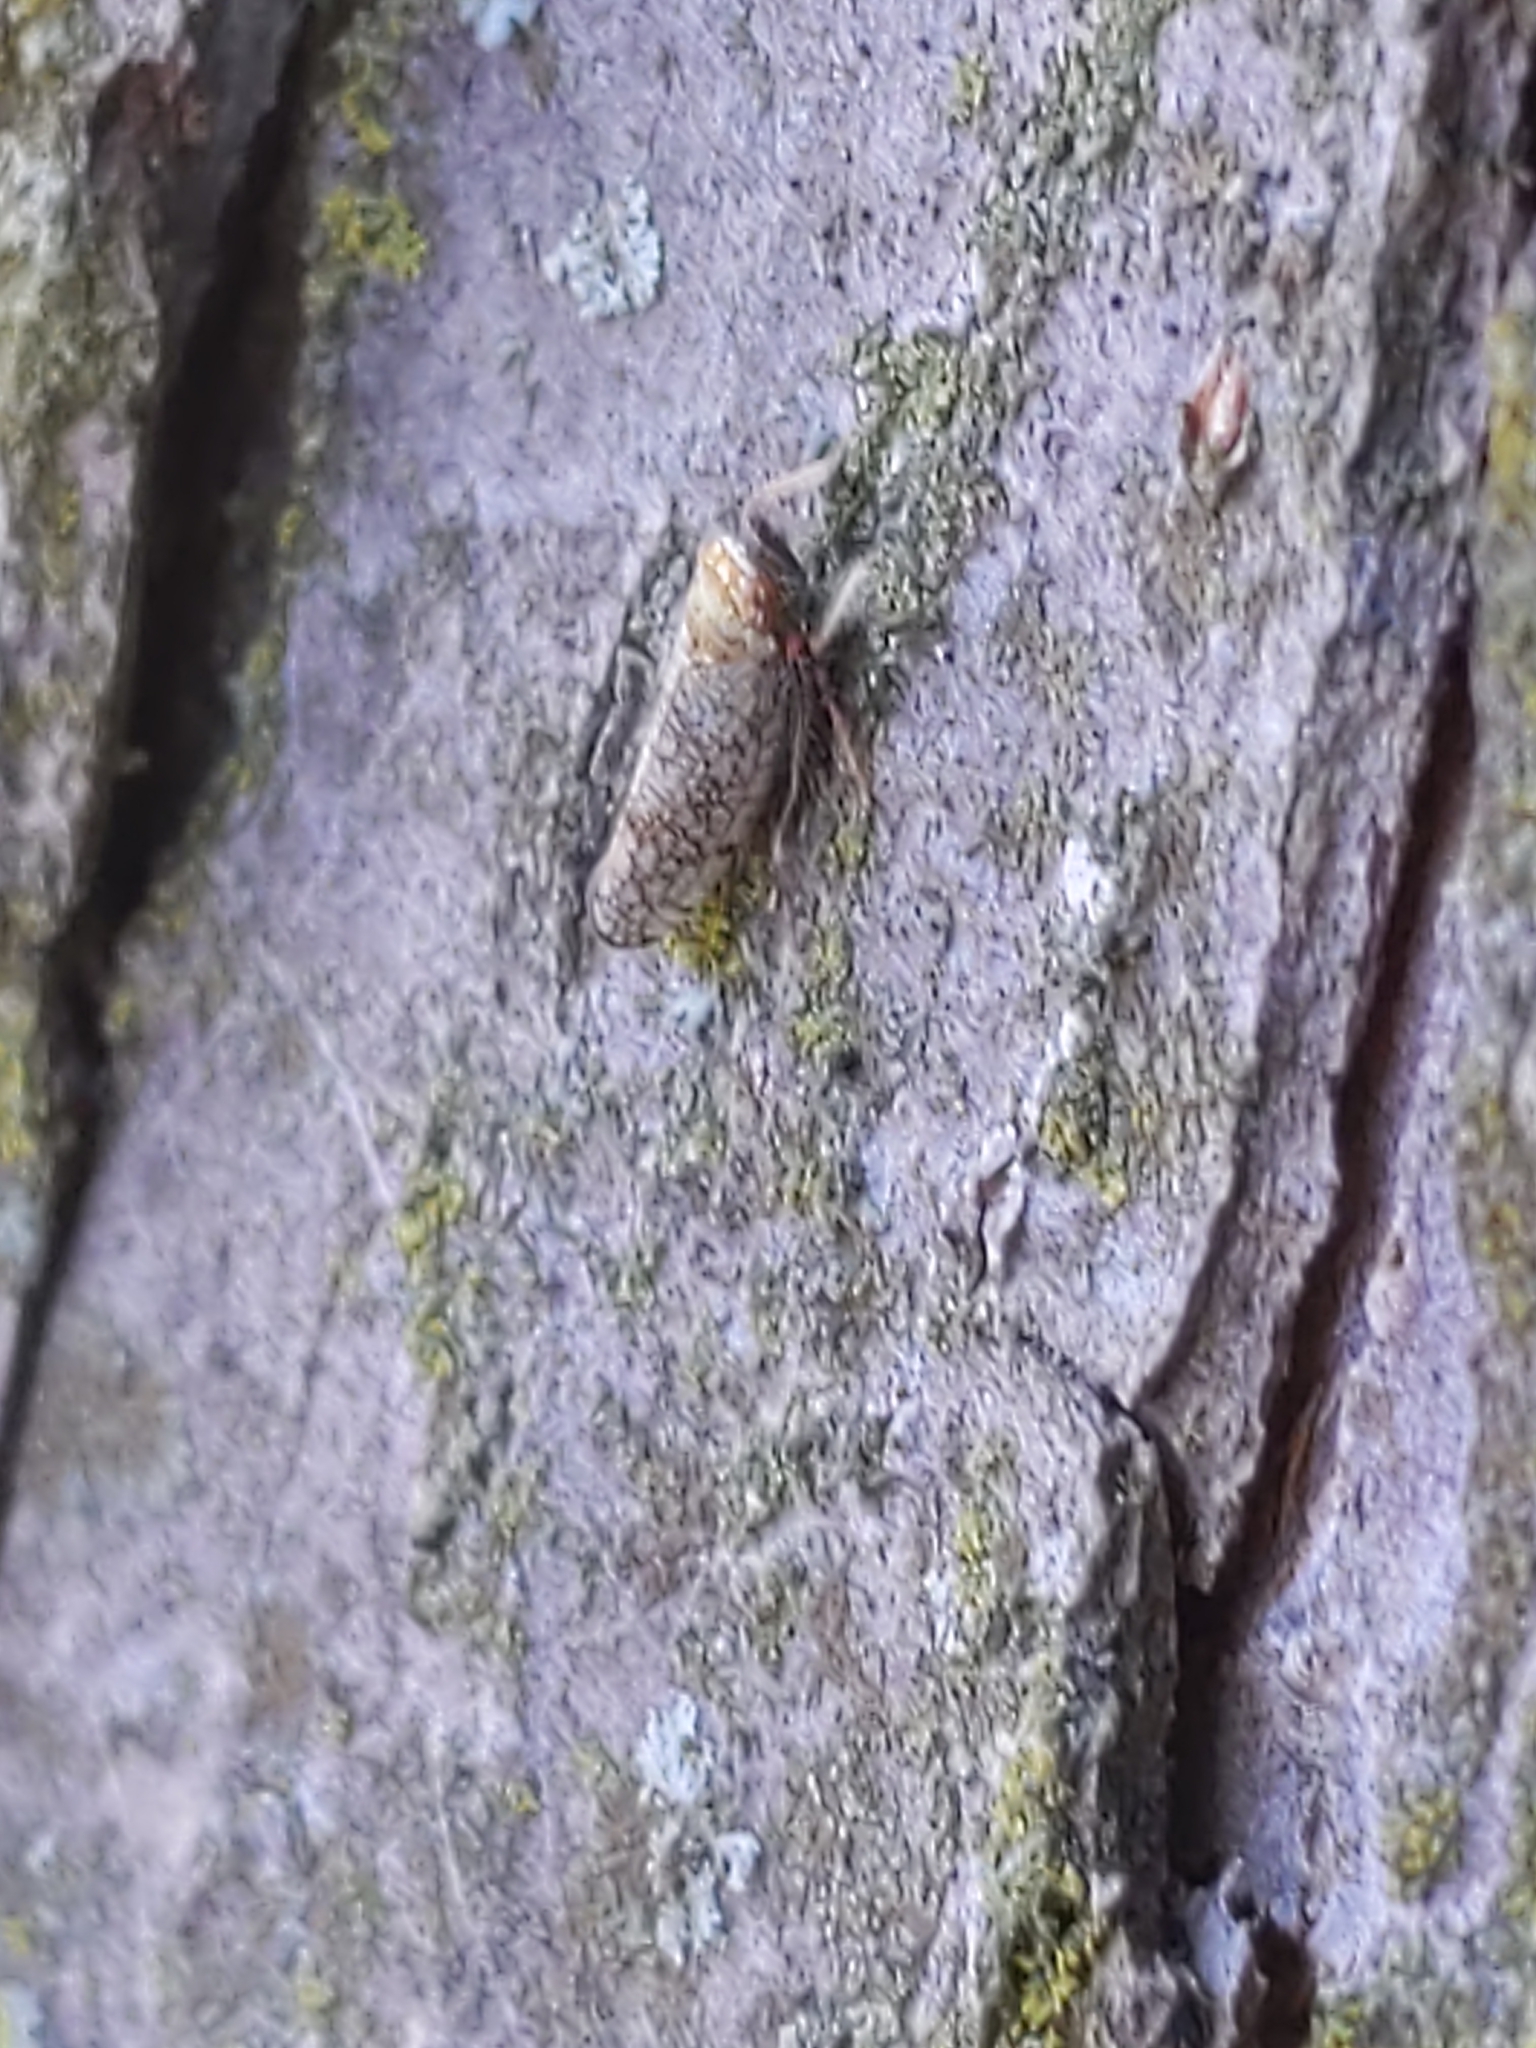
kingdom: Animalia
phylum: Arthropoda
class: Insecta
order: Hemiptera
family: Cicadellidae
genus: Orientus
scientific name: Orientus ishidae
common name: Japanese leafhopper
